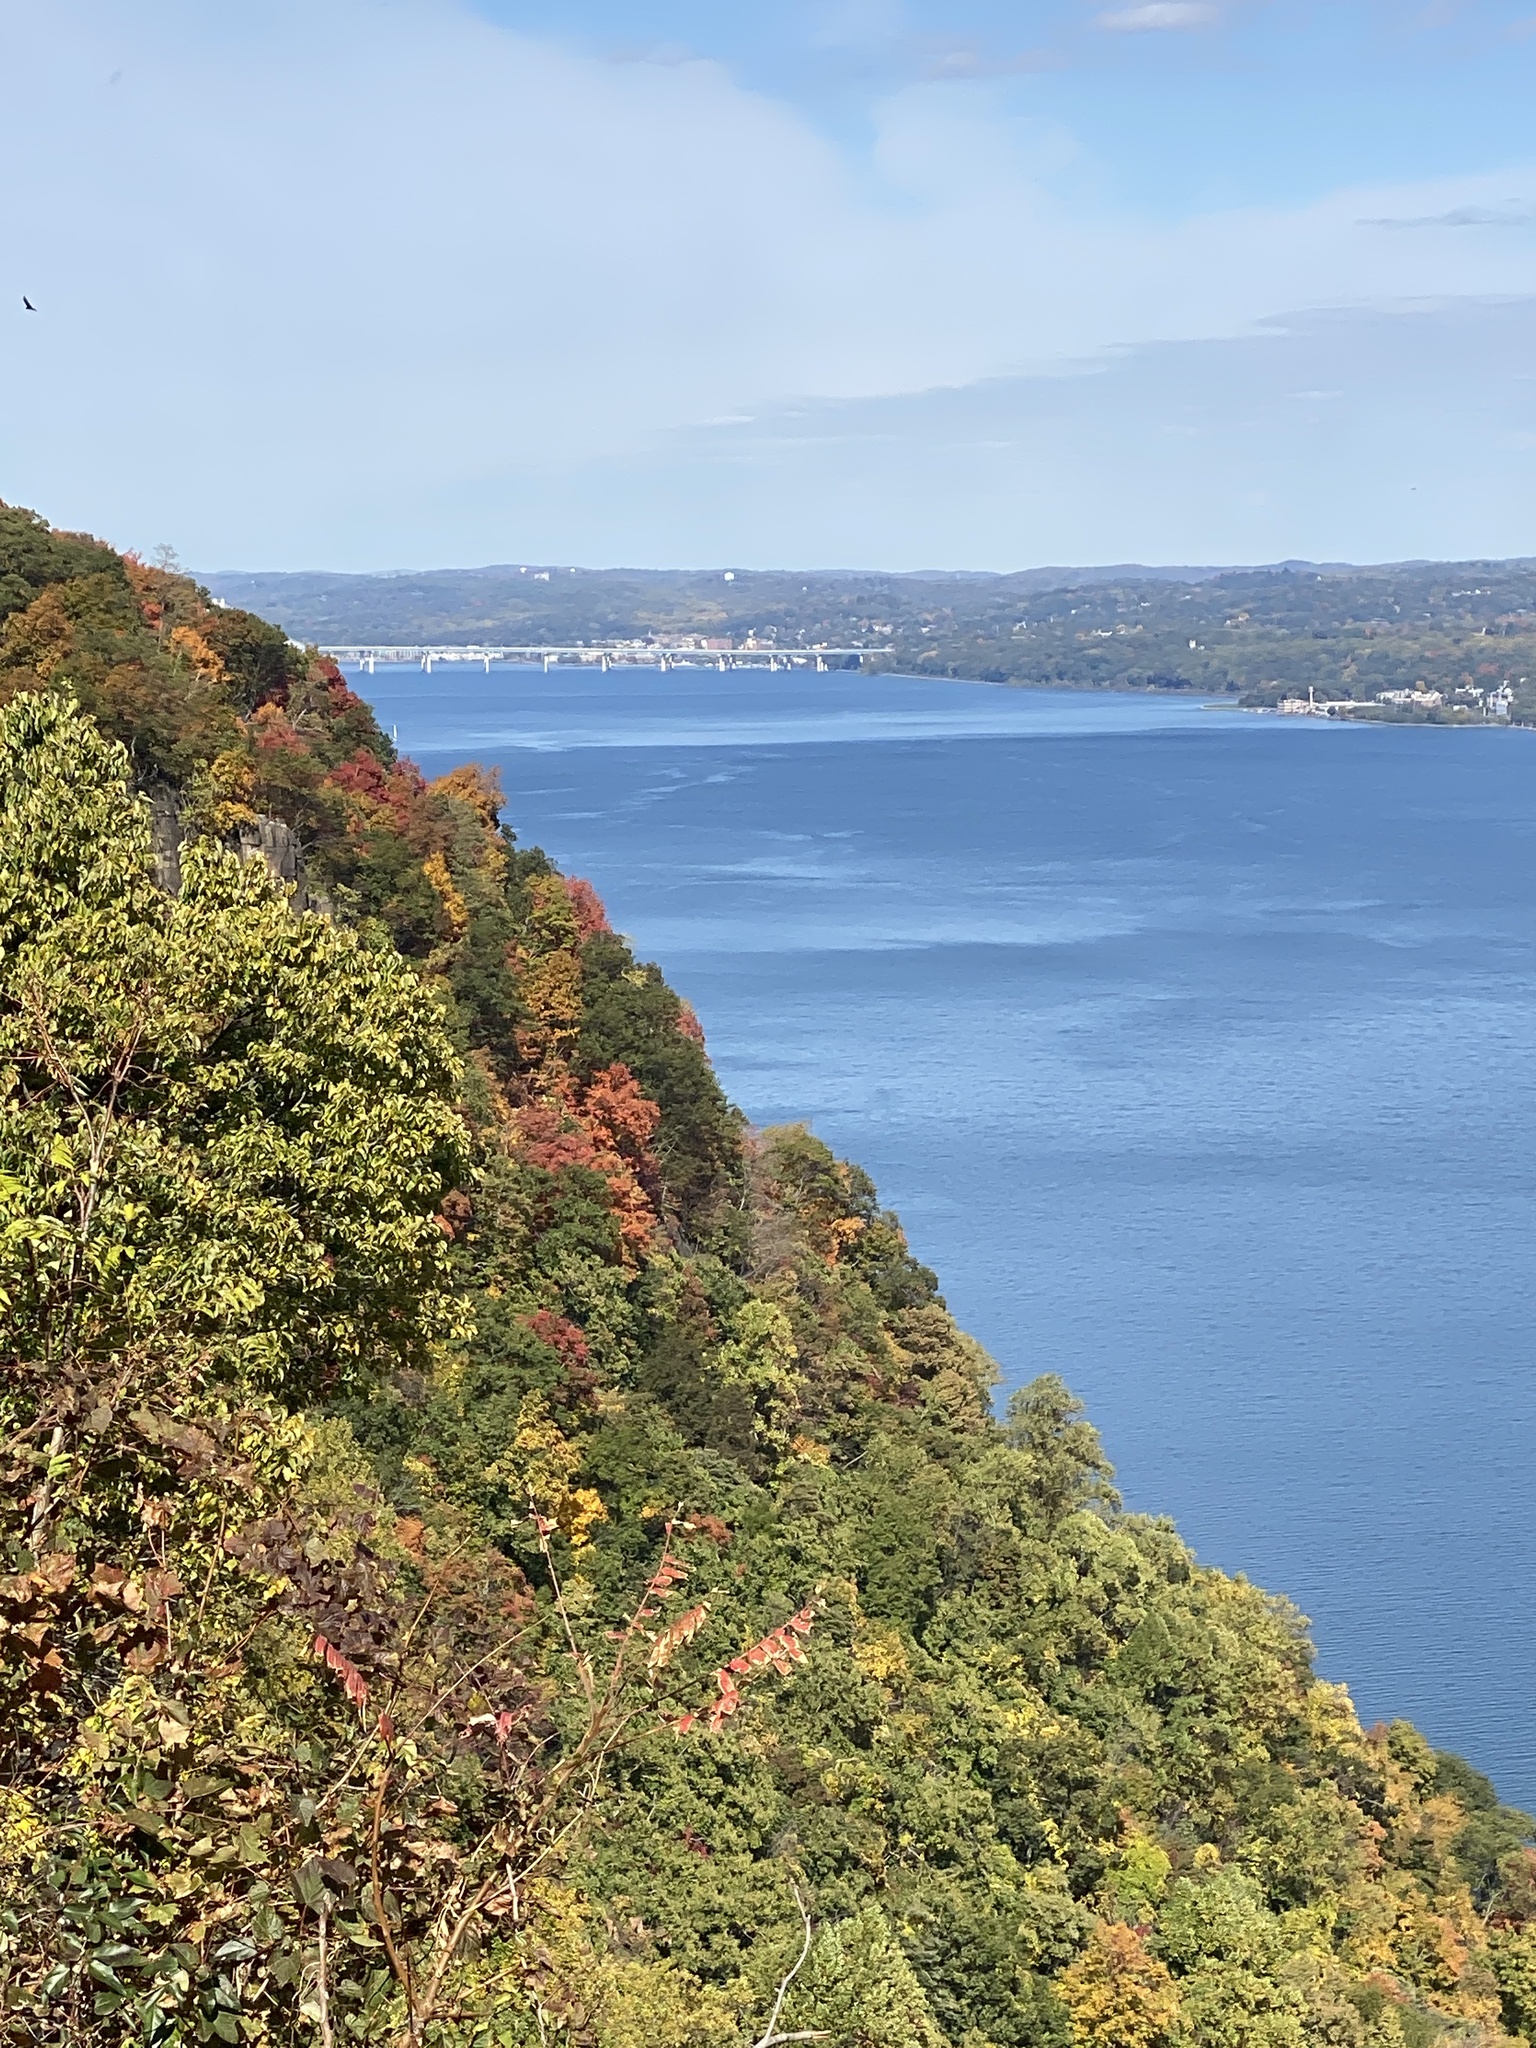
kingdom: Plantae
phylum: Tracheophyta
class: Magnoliopsida
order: Asterales
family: Asteraceae
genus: Bidens
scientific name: Bidens bipinnata
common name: Spanish-needles
